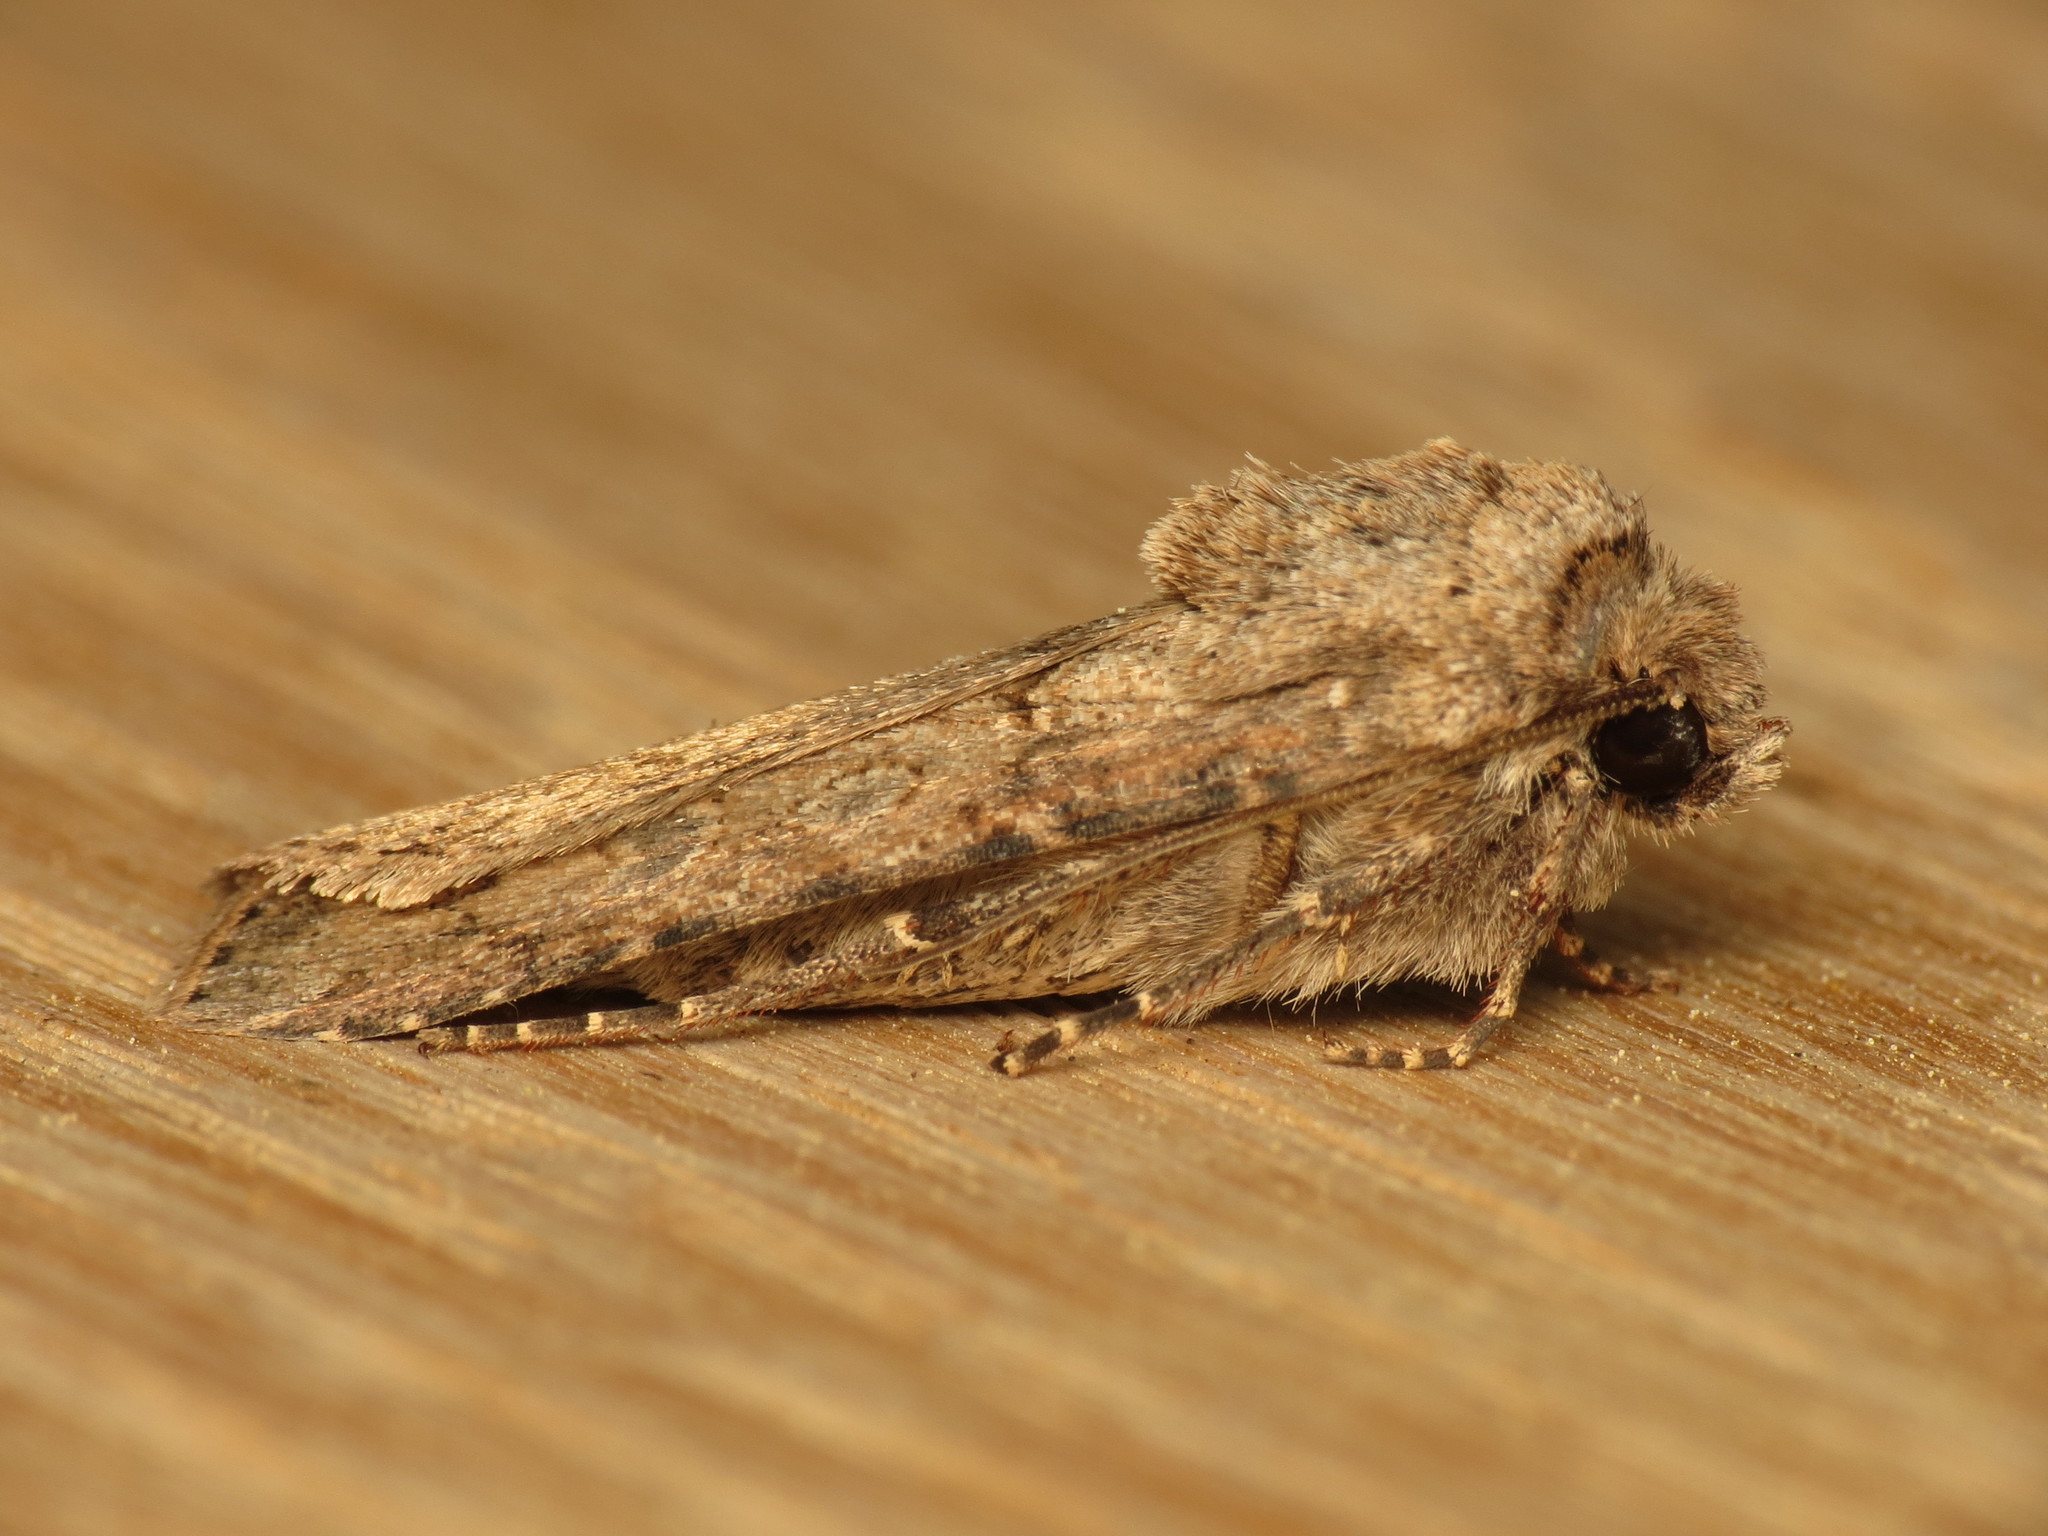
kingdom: Animalia
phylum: Arthropoda
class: Insecta
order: Lepidoptera
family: Noctuidae
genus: Agrotis
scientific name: Agrotis segetum
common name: Turnip moth
